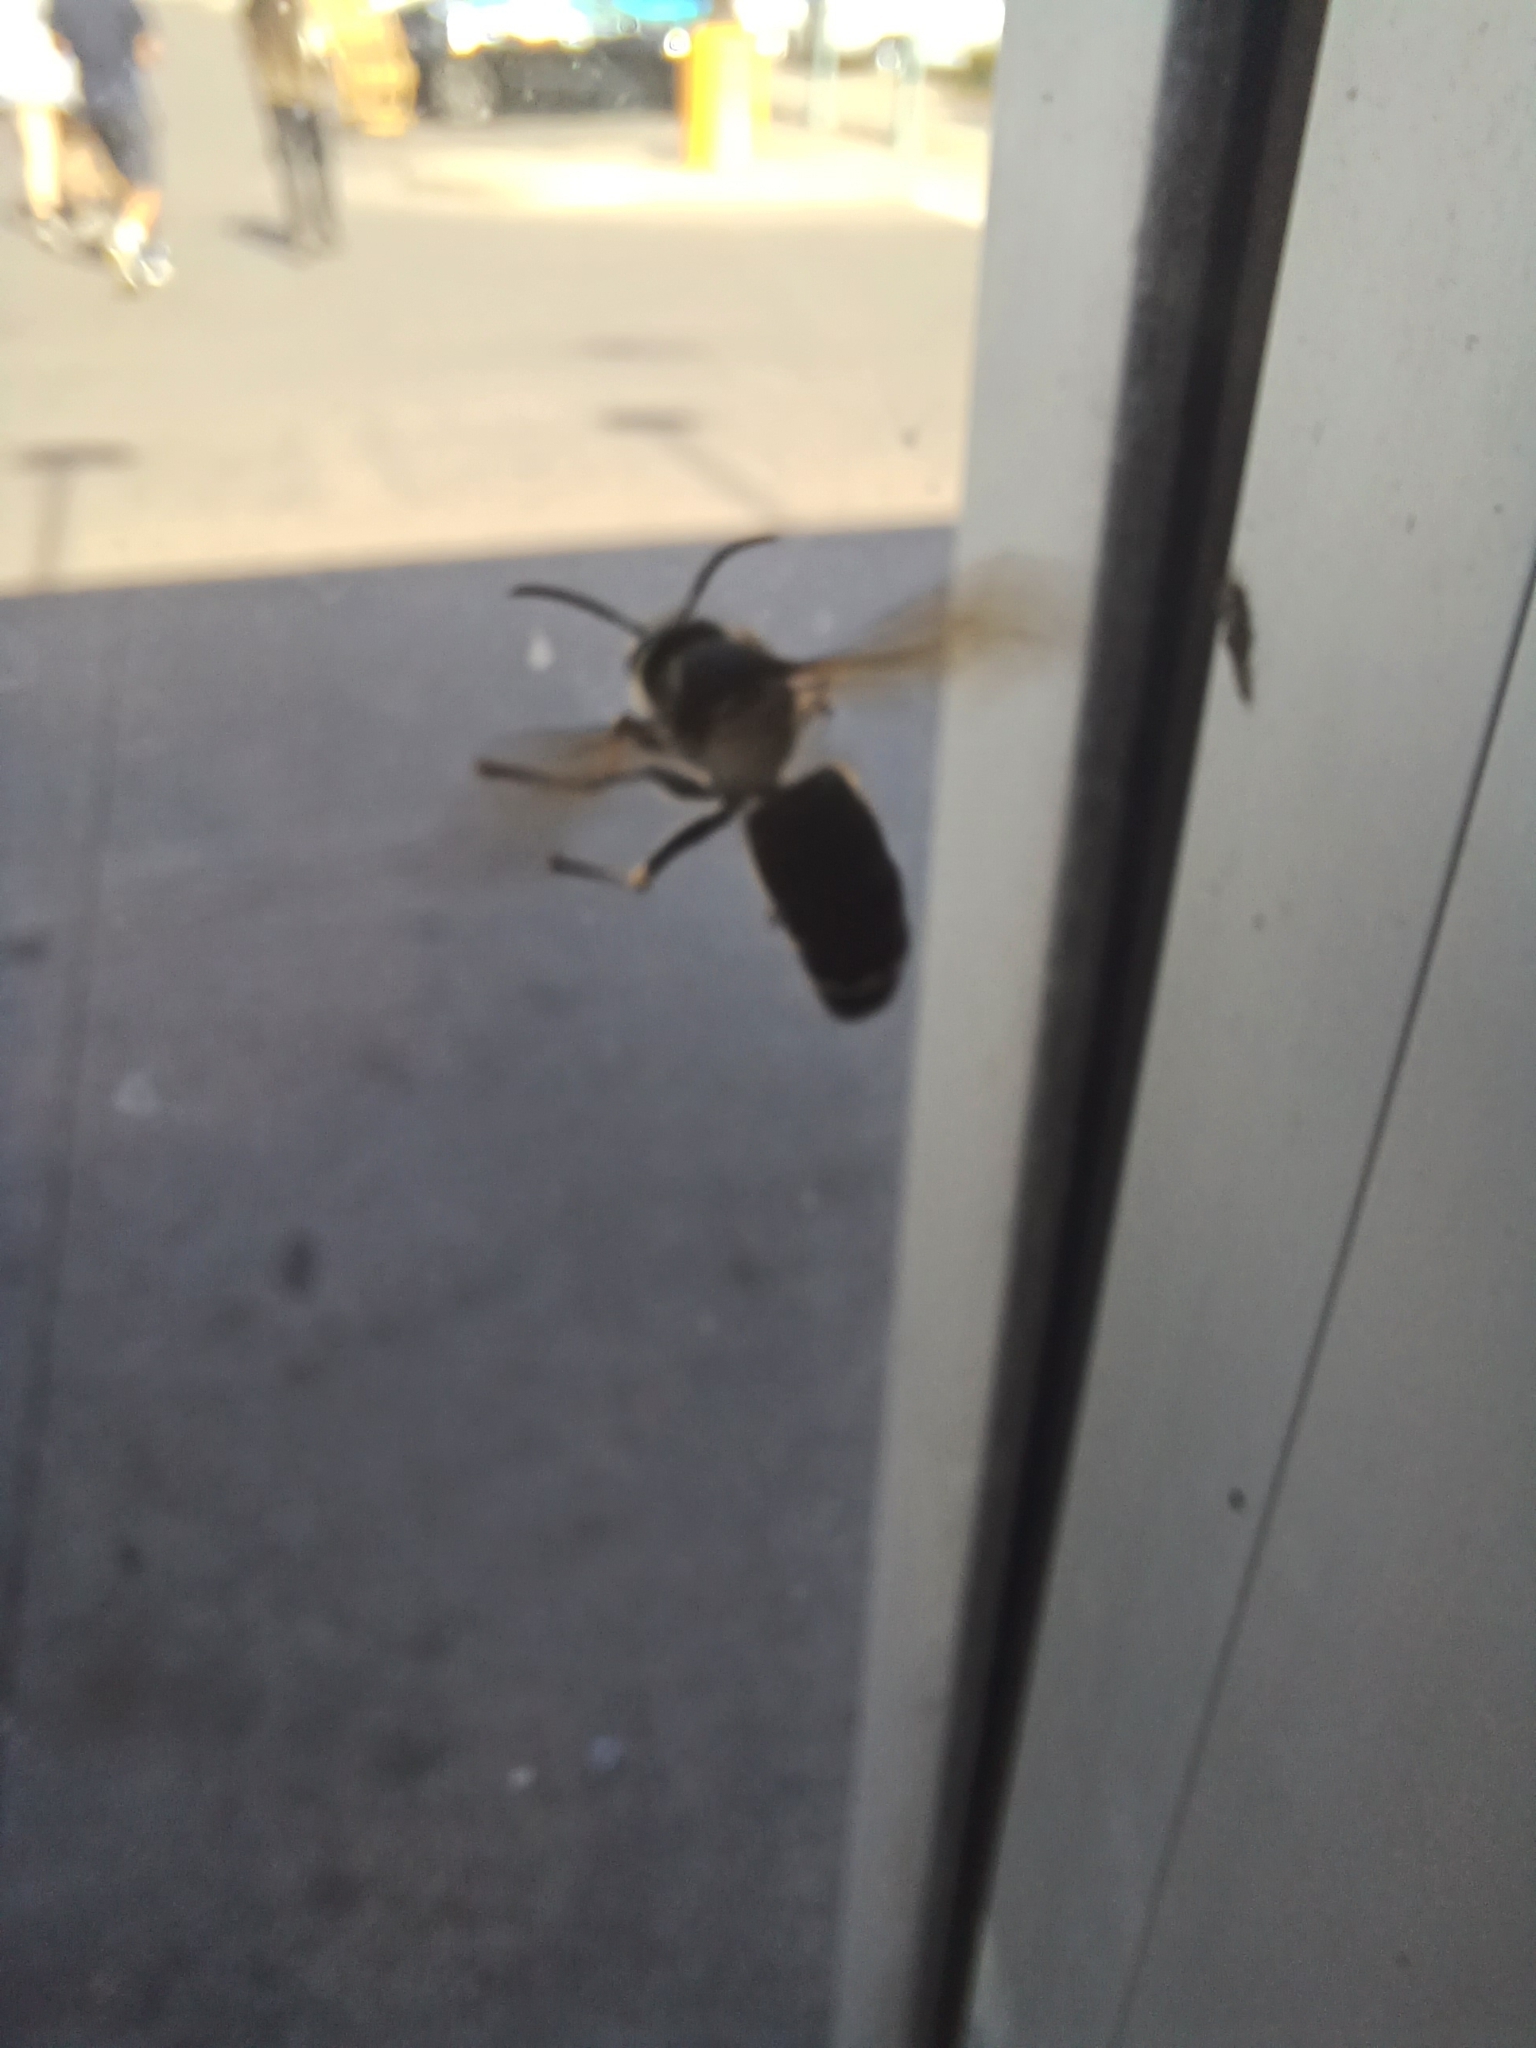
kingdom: Animalia
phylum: Arthropoda
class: Insecta
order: Hymenoptera
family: Vespidae
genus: Dolichovespula
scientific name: Dolichovespula maculata
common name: Bald-faced hornet
